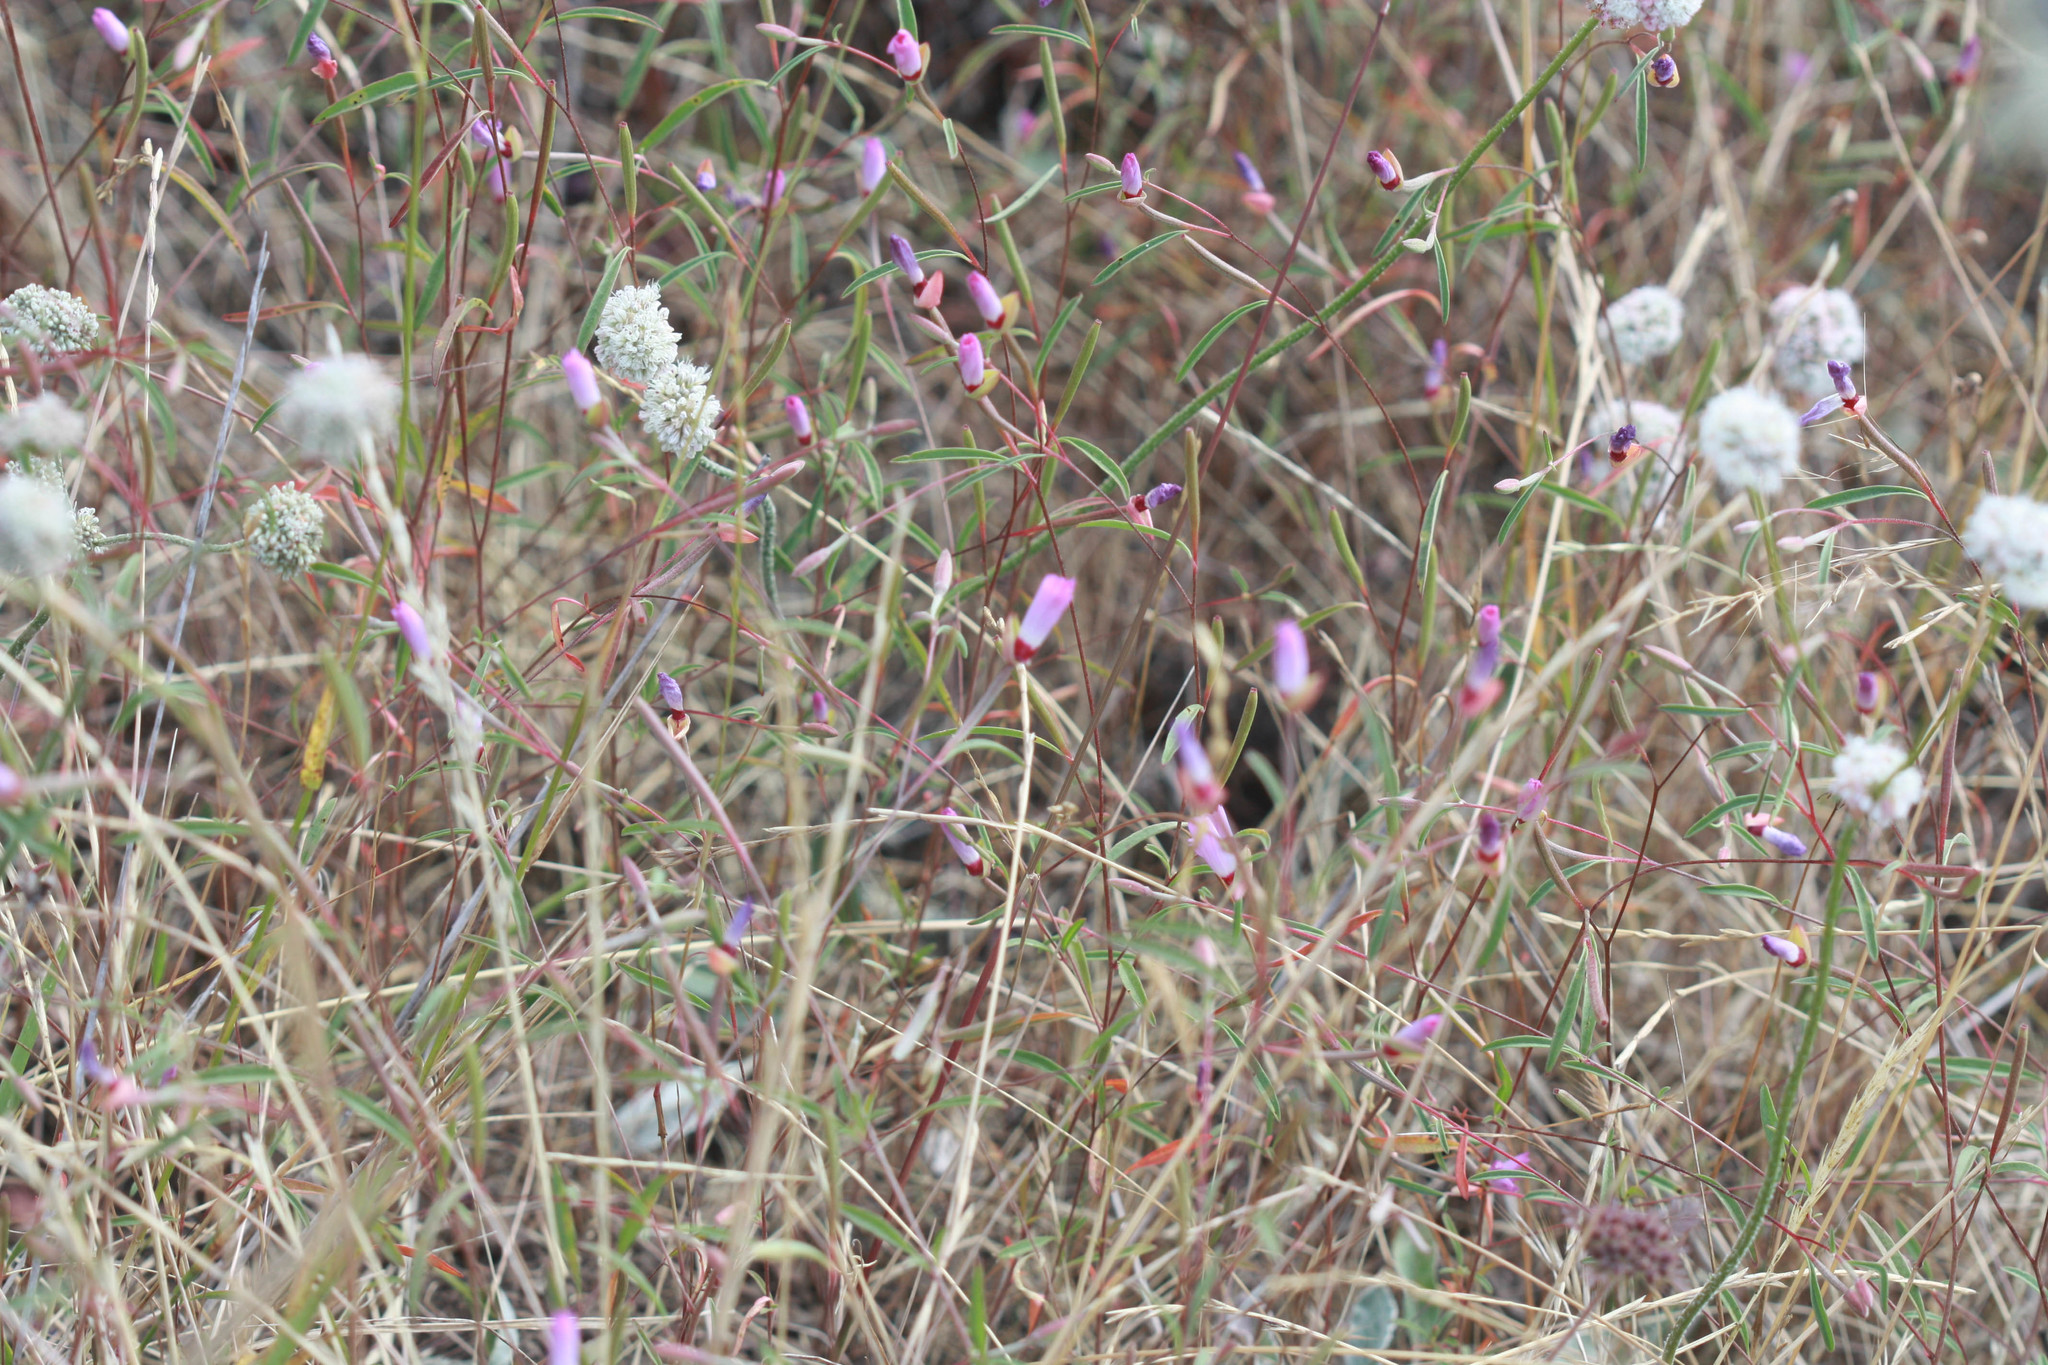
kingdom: Plantae
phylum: Tracheophyta
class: Magnoliopsida
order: Myrtales
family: Onagraceae
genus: Clarkia
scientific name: Clarkia franciscana
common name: Presidio clarkia
